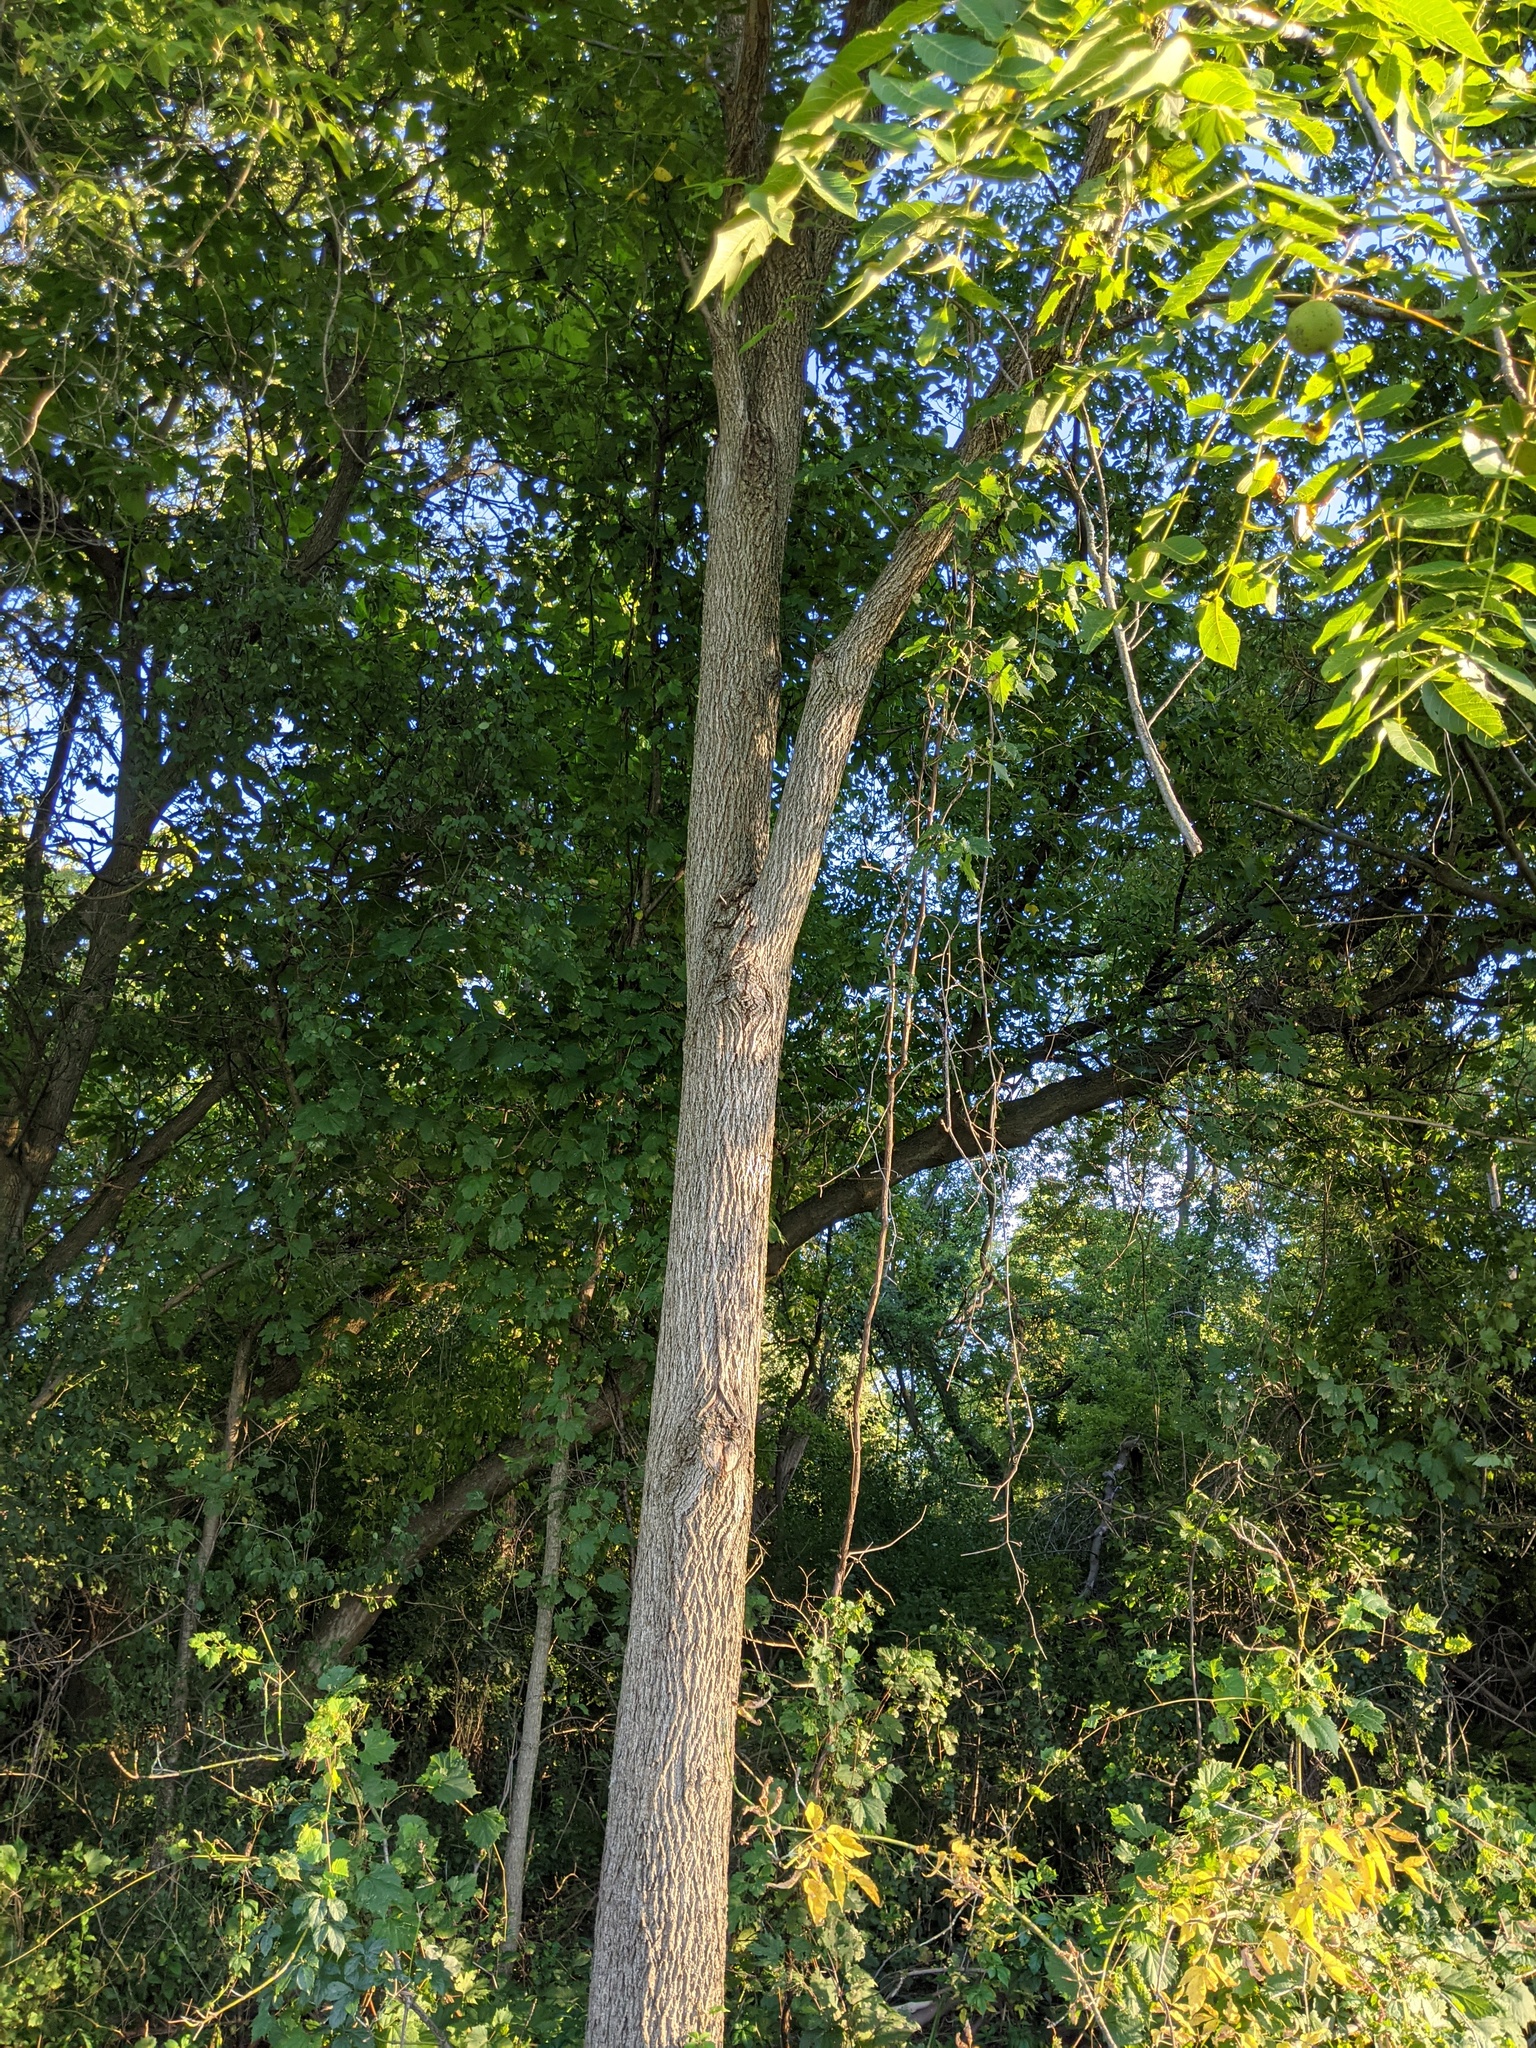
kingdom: Plantae
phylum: Tracheophyta
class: Magnoliopsida
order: Fagales
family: Juglandaceae
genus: Juglans
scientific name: Juglans nigra
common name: Black walnut
